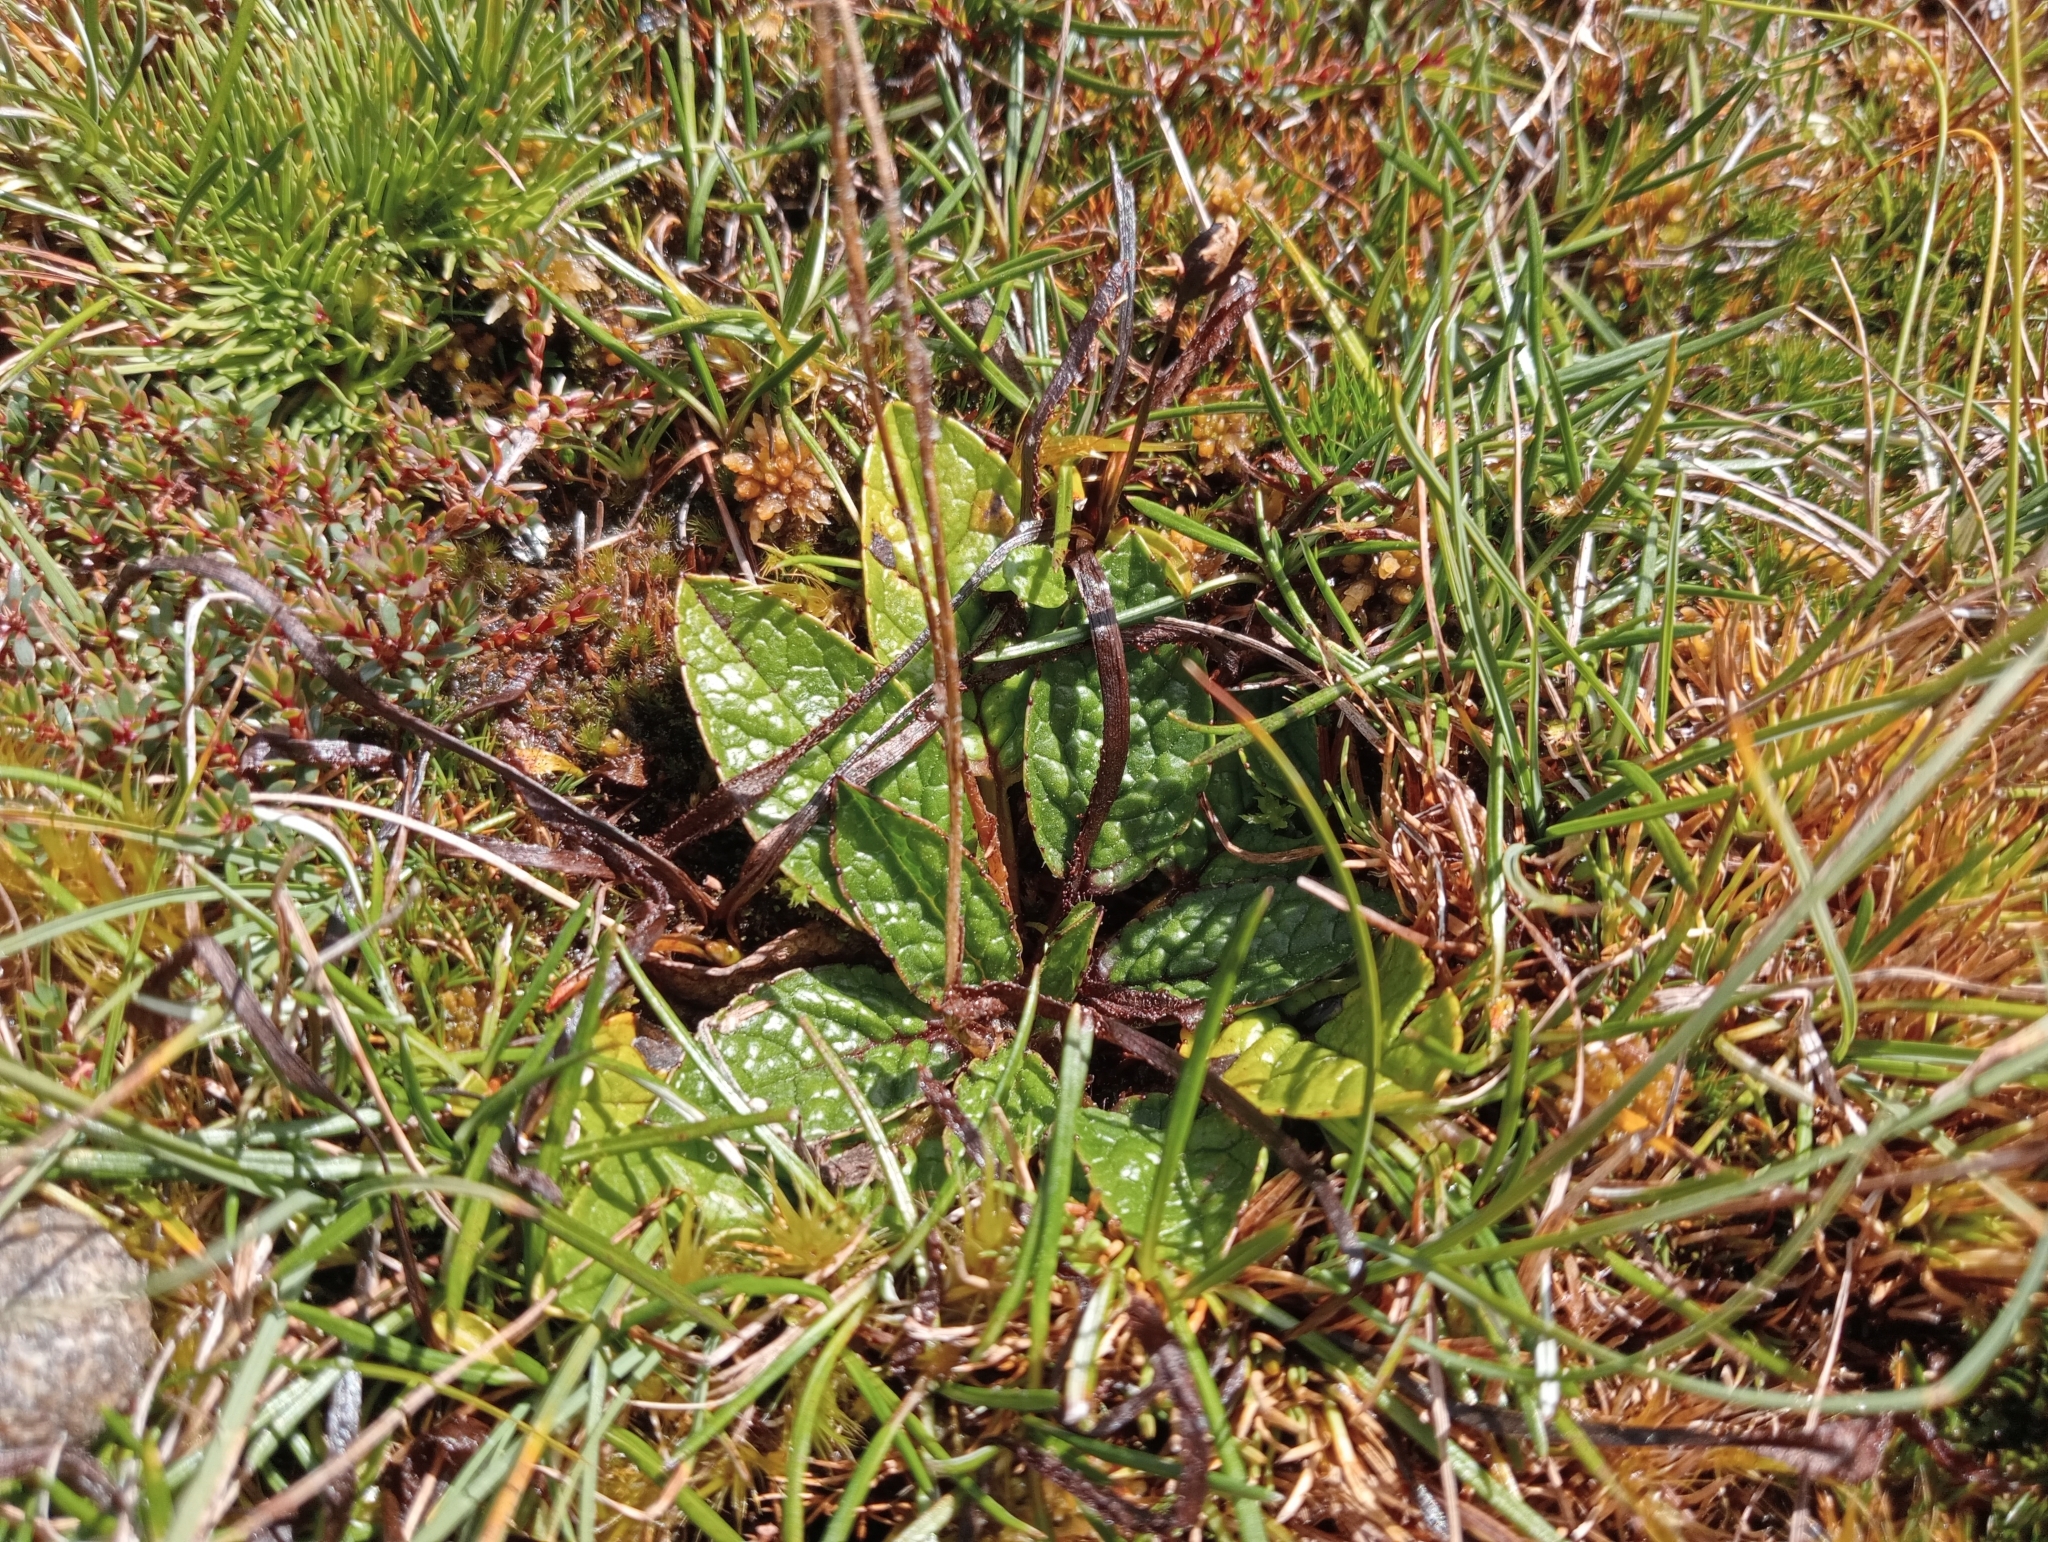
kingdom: Plantae
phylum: Tracheophyta
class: Magnoliopsida
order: Asterales
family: Asteraceae
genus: Brachyglottis
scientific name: Brachyglottis bellidioides
